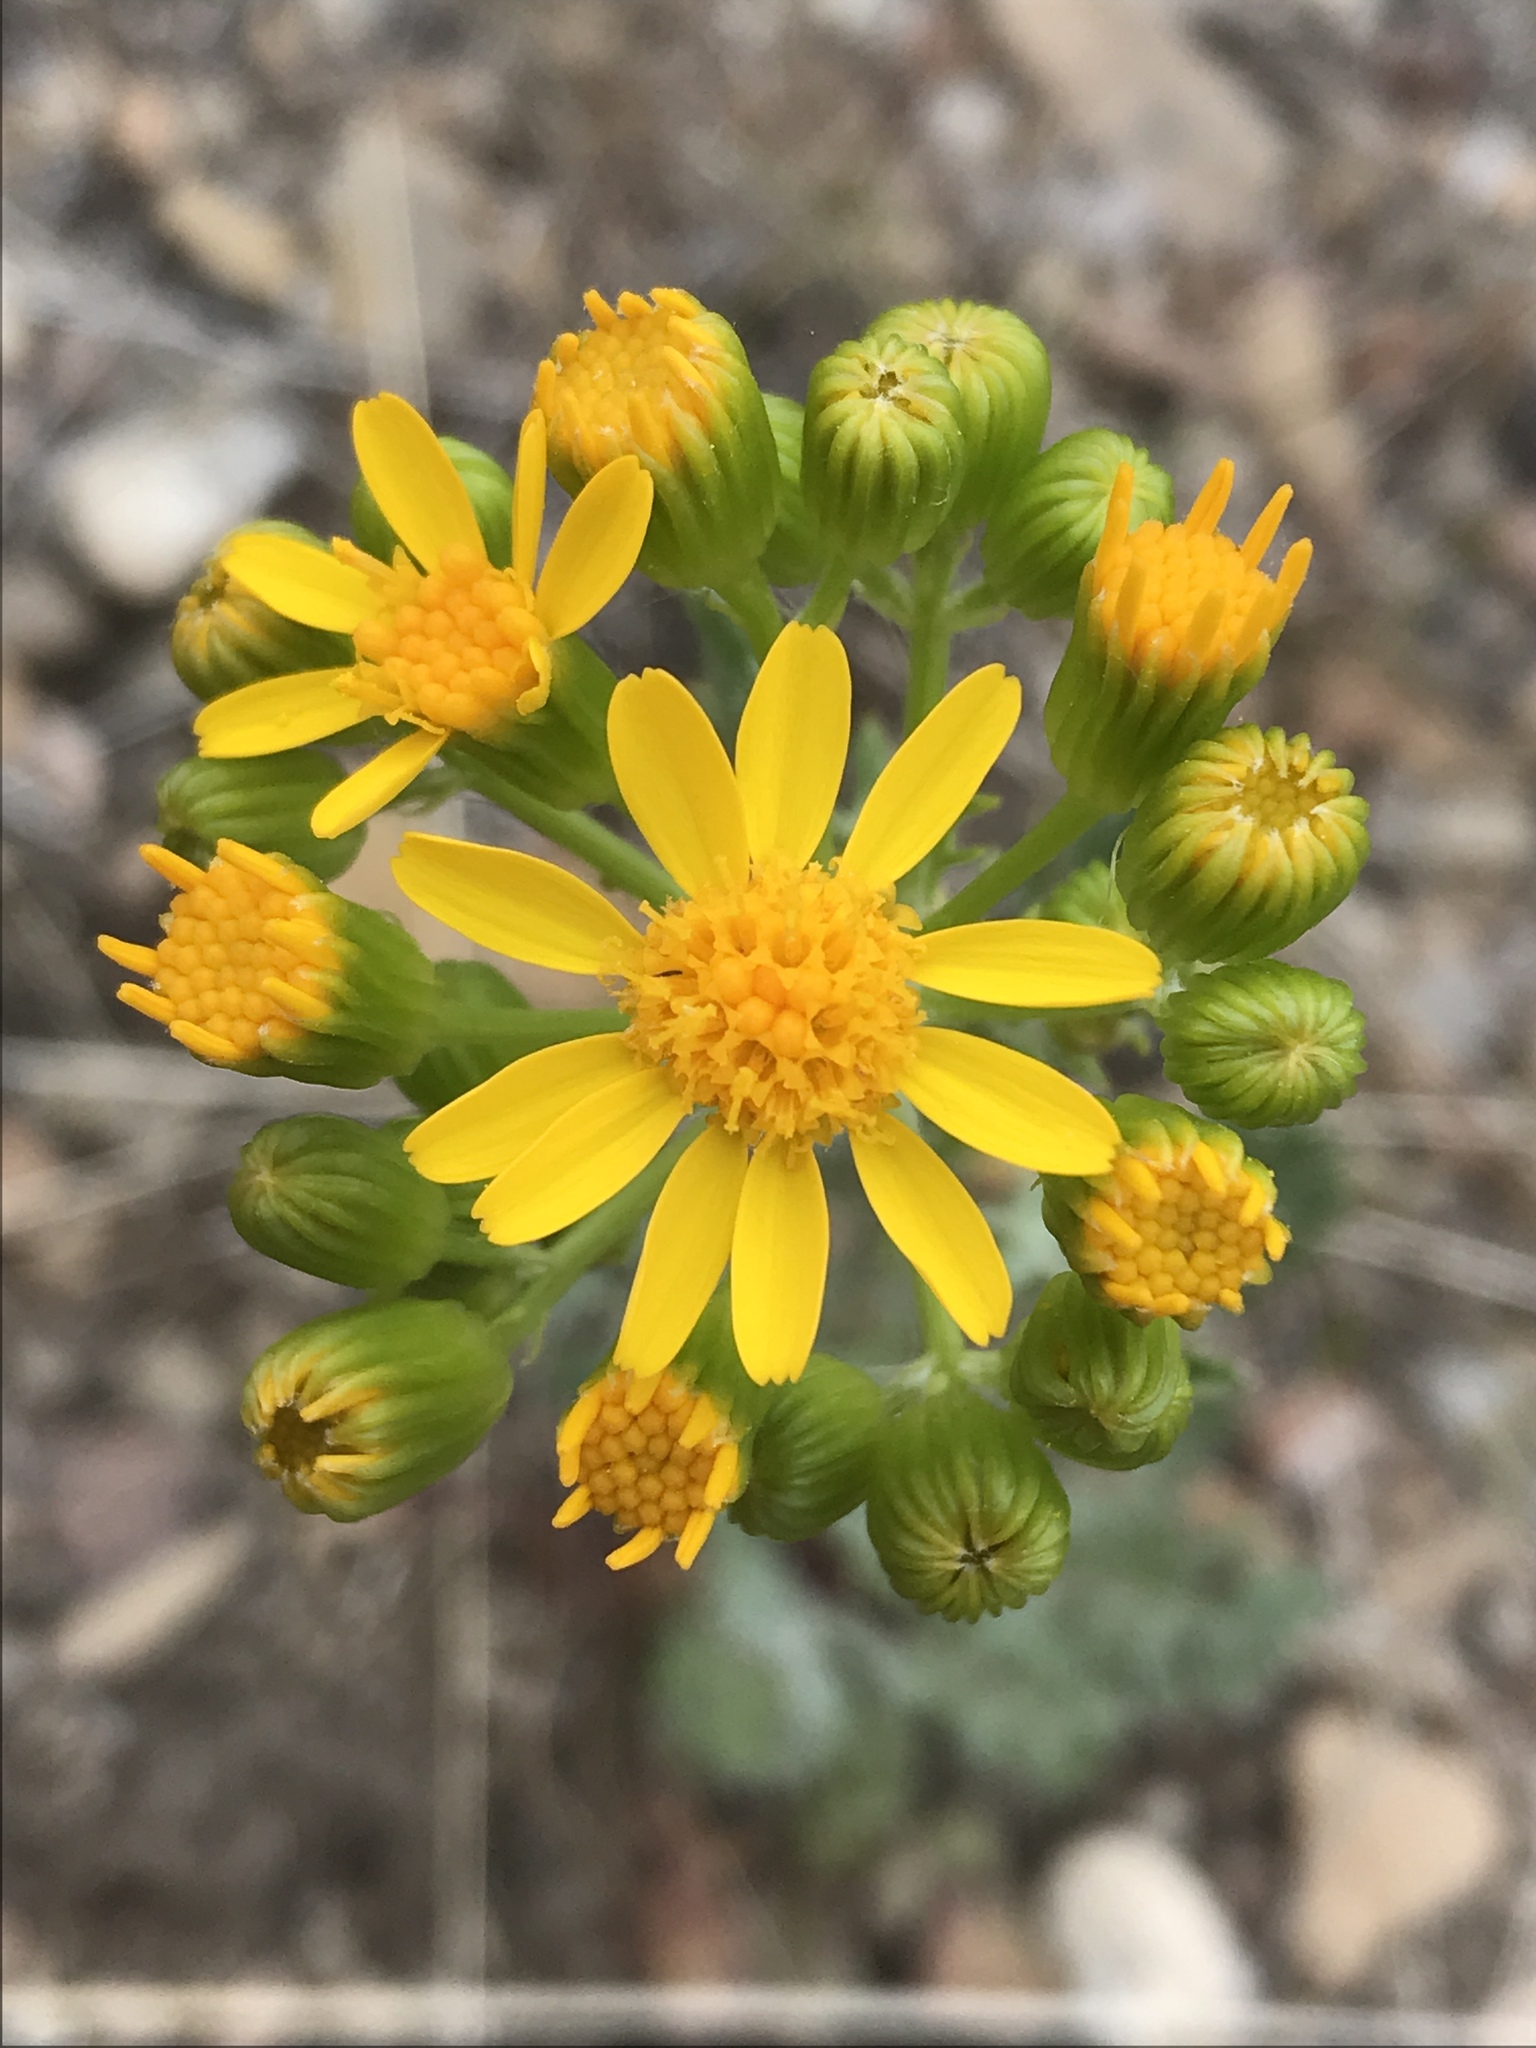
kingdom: Plantae
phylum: Tracheophyta
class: Magnoliopsida
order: Asterales
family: Asteraceae
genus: Packera
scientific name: Packera multilobata
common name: Lobe-leaf groundsel
